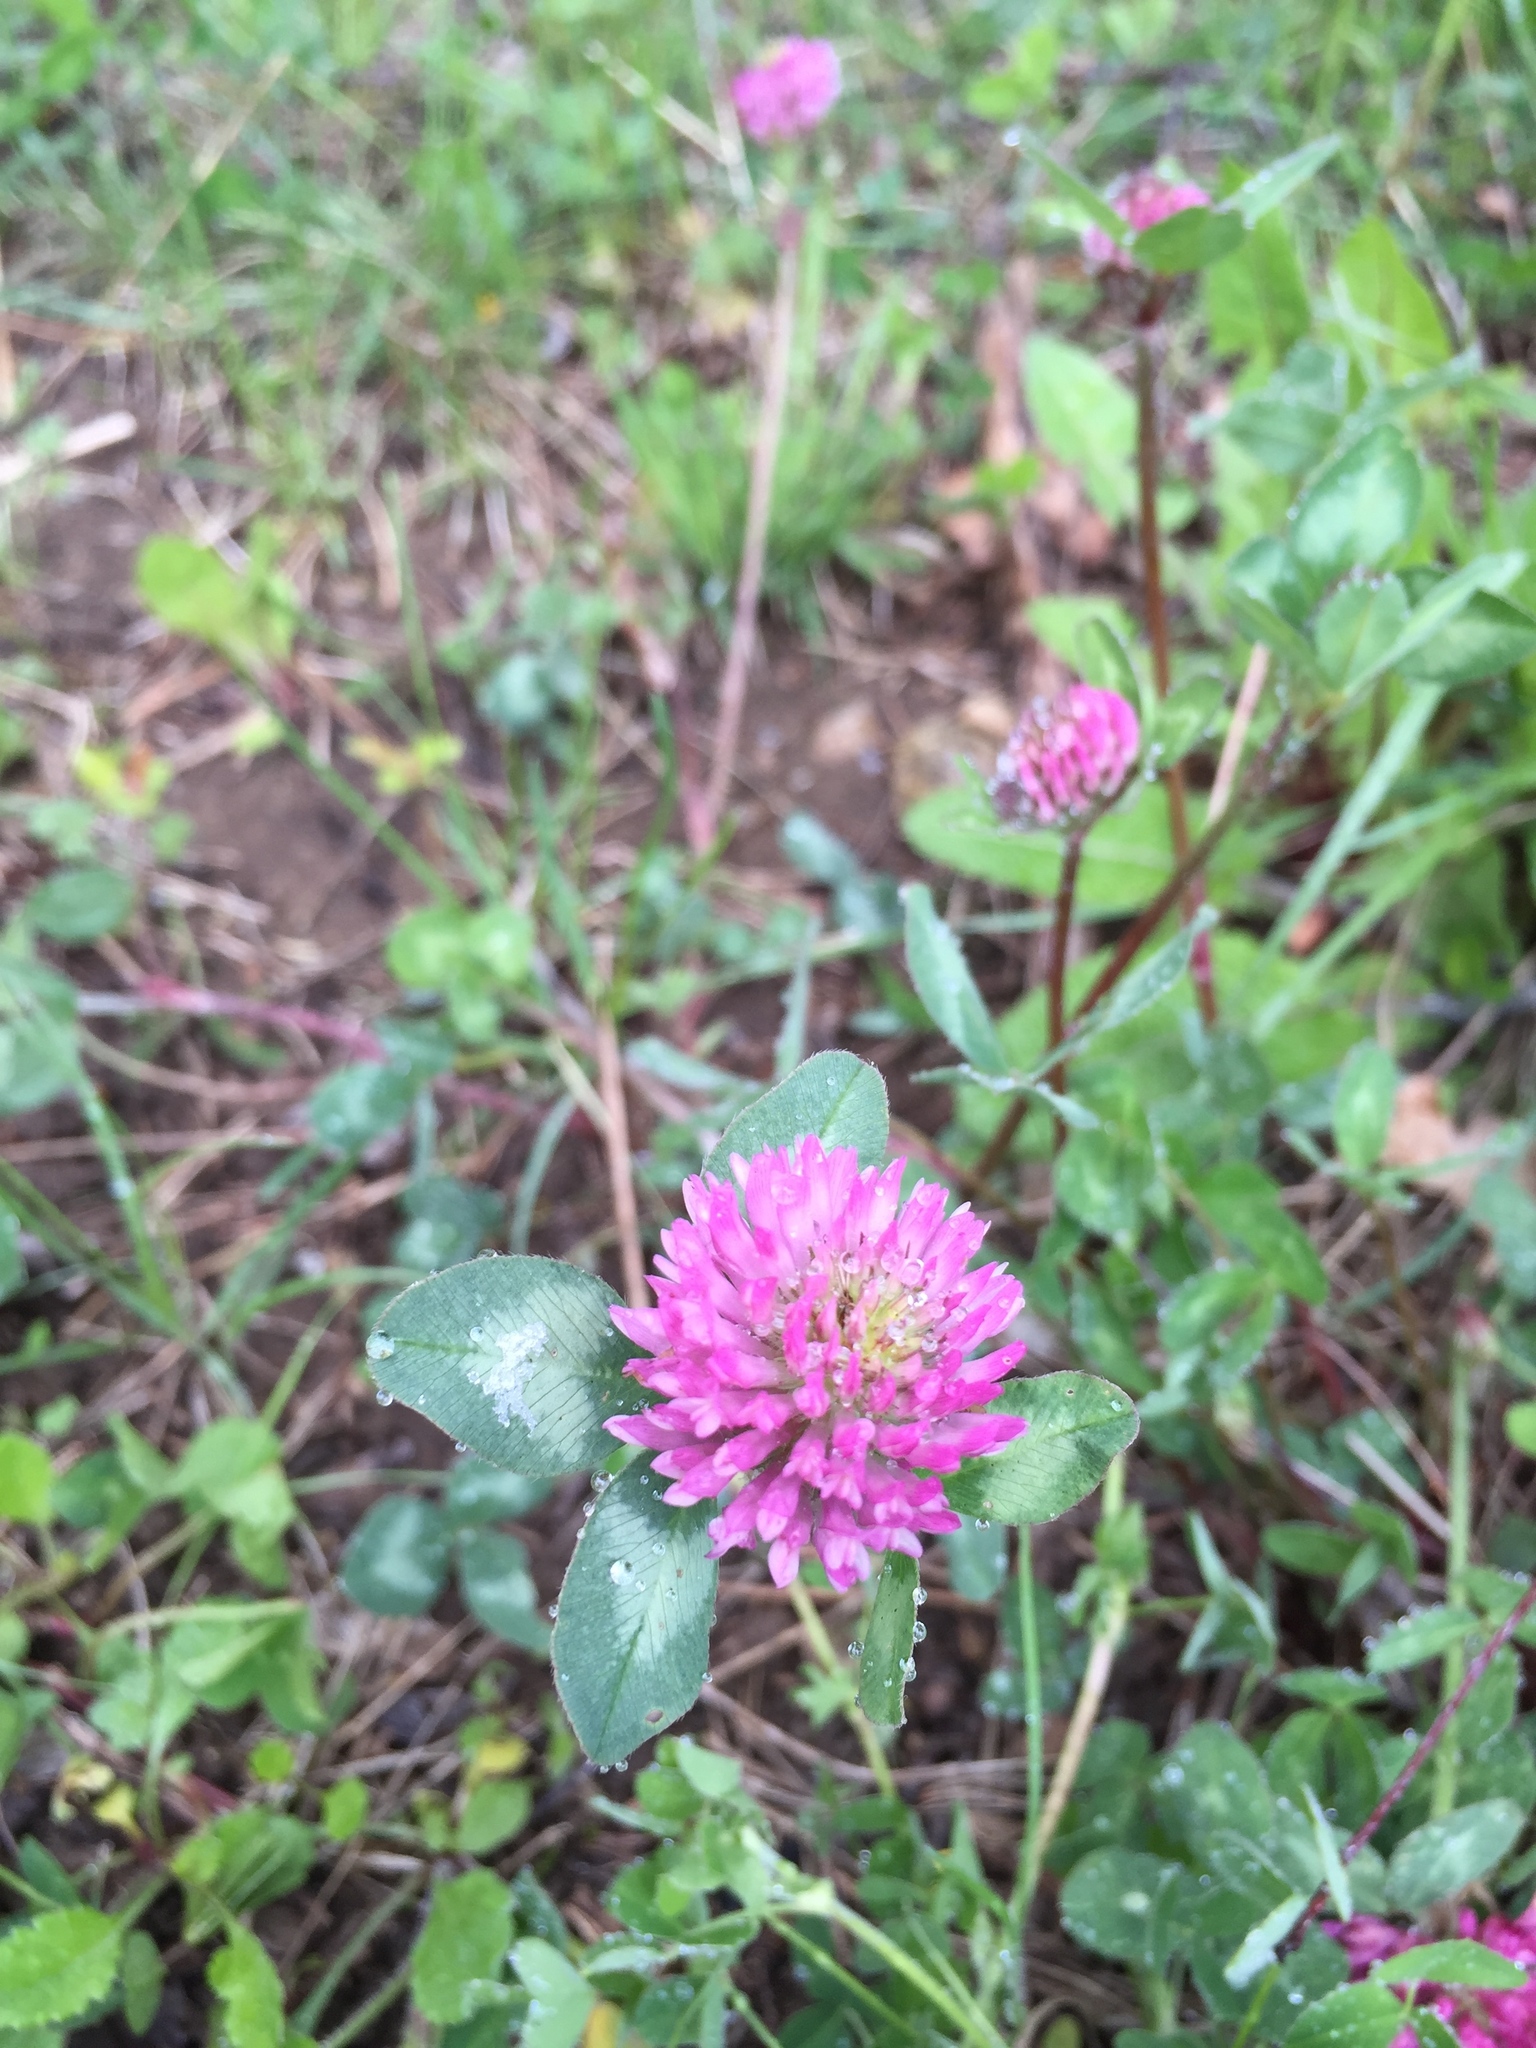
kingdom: Plantae
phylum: Tracheophyta
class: Magnoliopsida
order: Fabales
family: Fabaceae
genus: Trifolium
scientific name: Trifolium pratense
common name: Red clover
